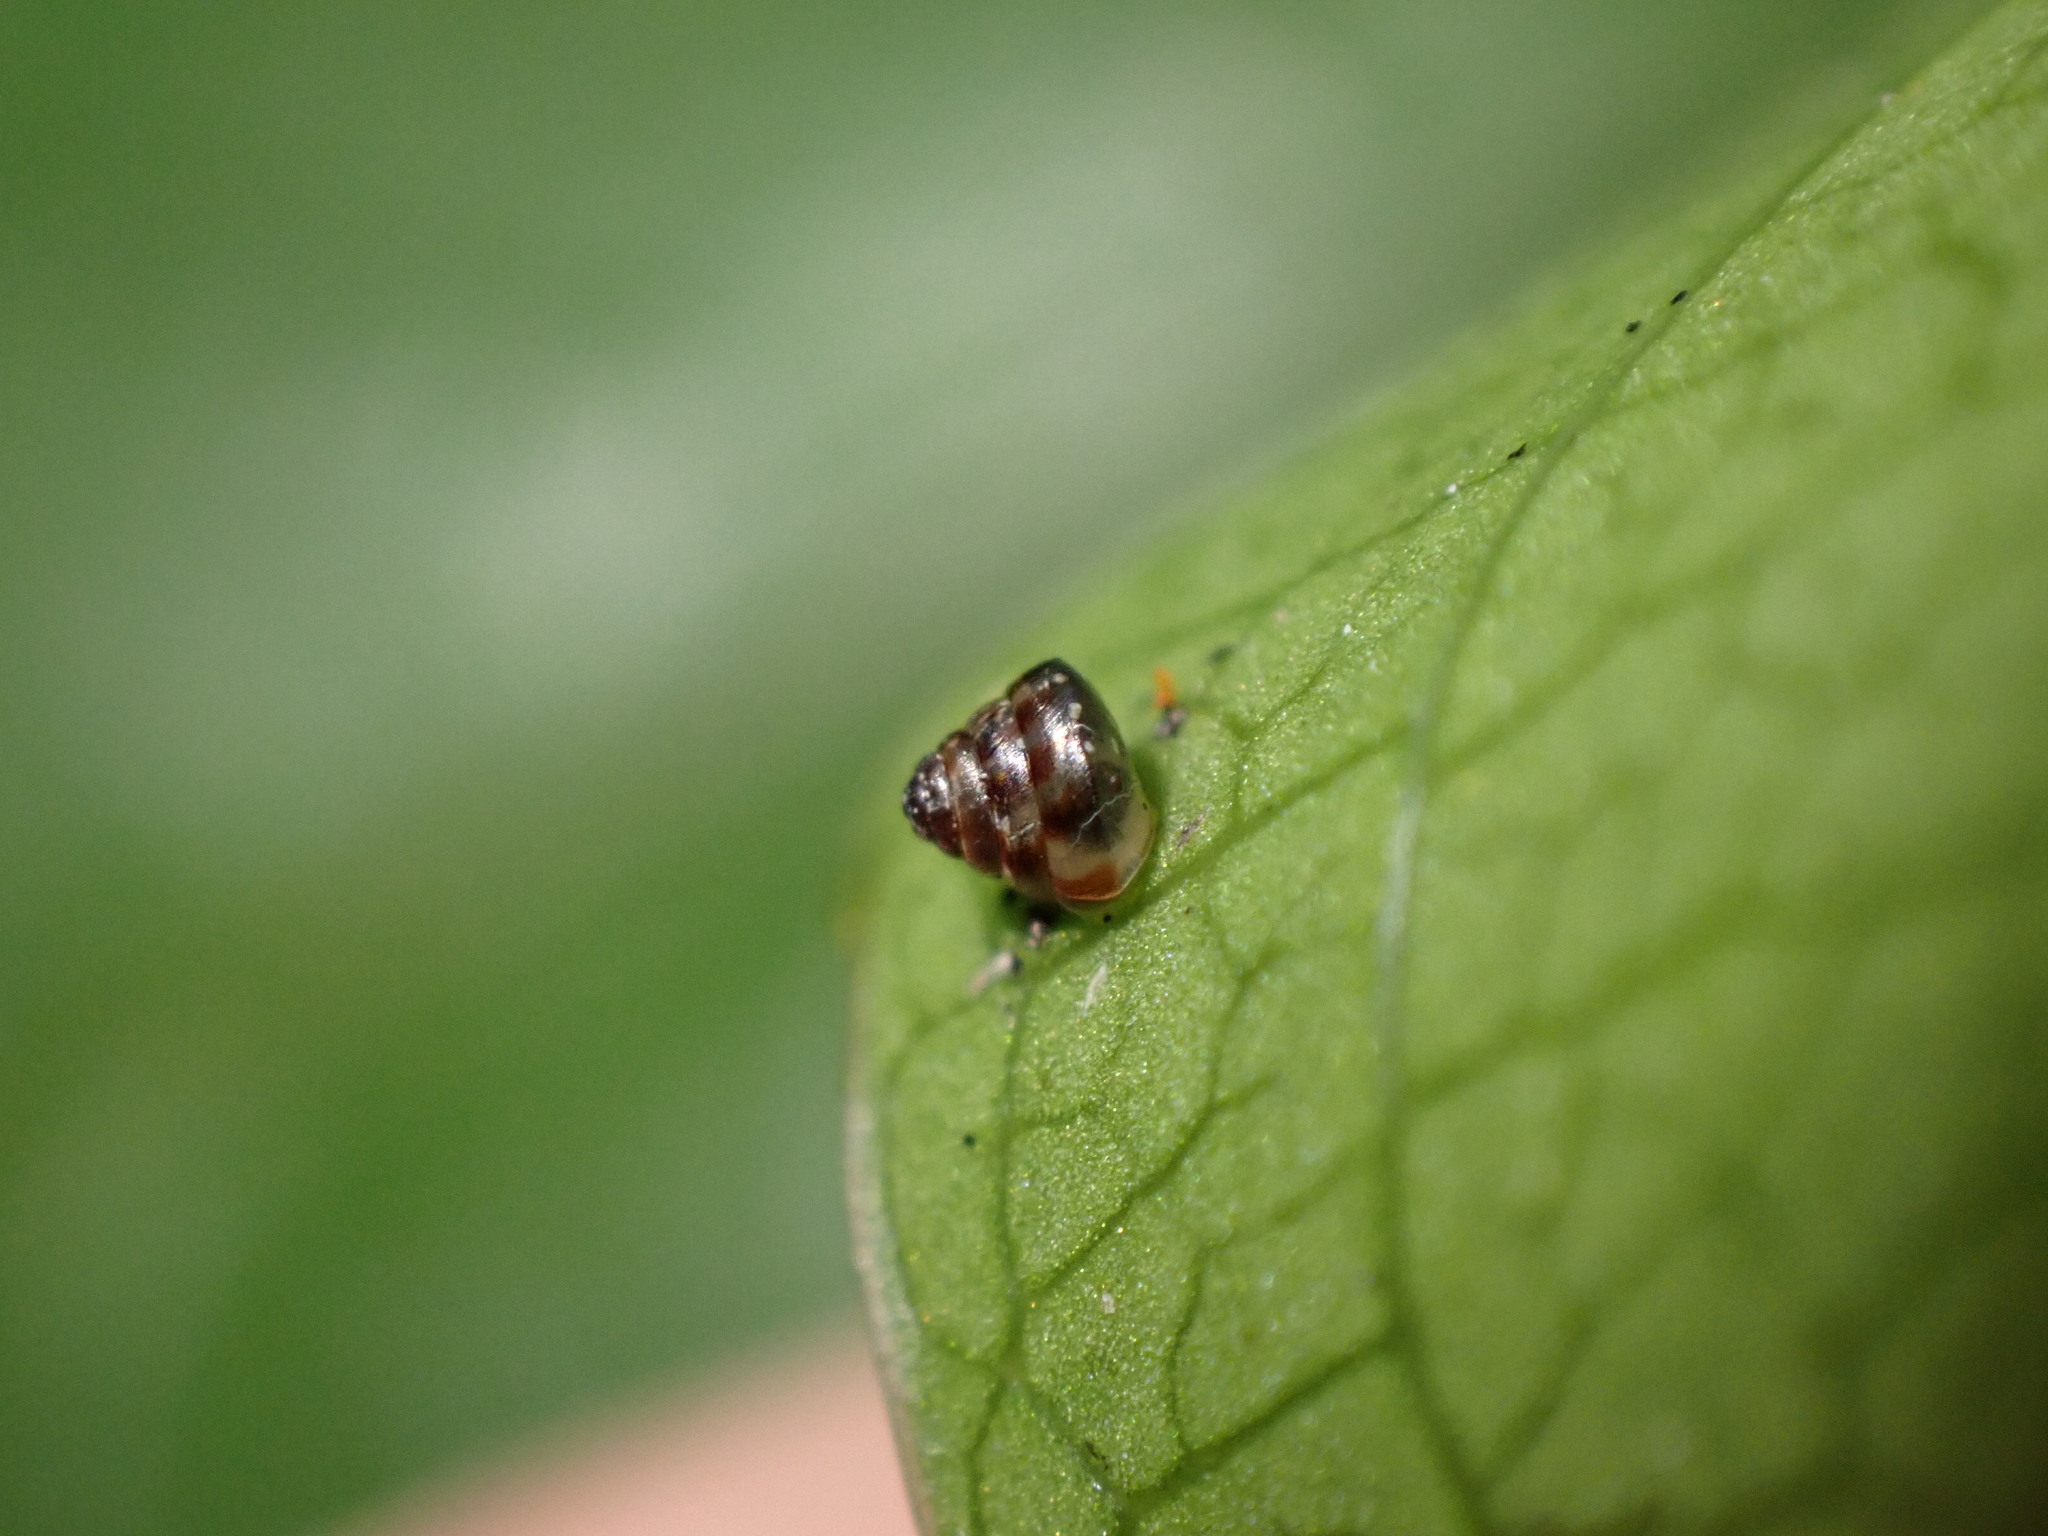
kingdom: Animalia
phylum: Mollusca
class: Gastropoda
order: Stylommatophora
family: Punctidae
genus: Phrixgnathus
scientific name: Phrixgnathus erigone
